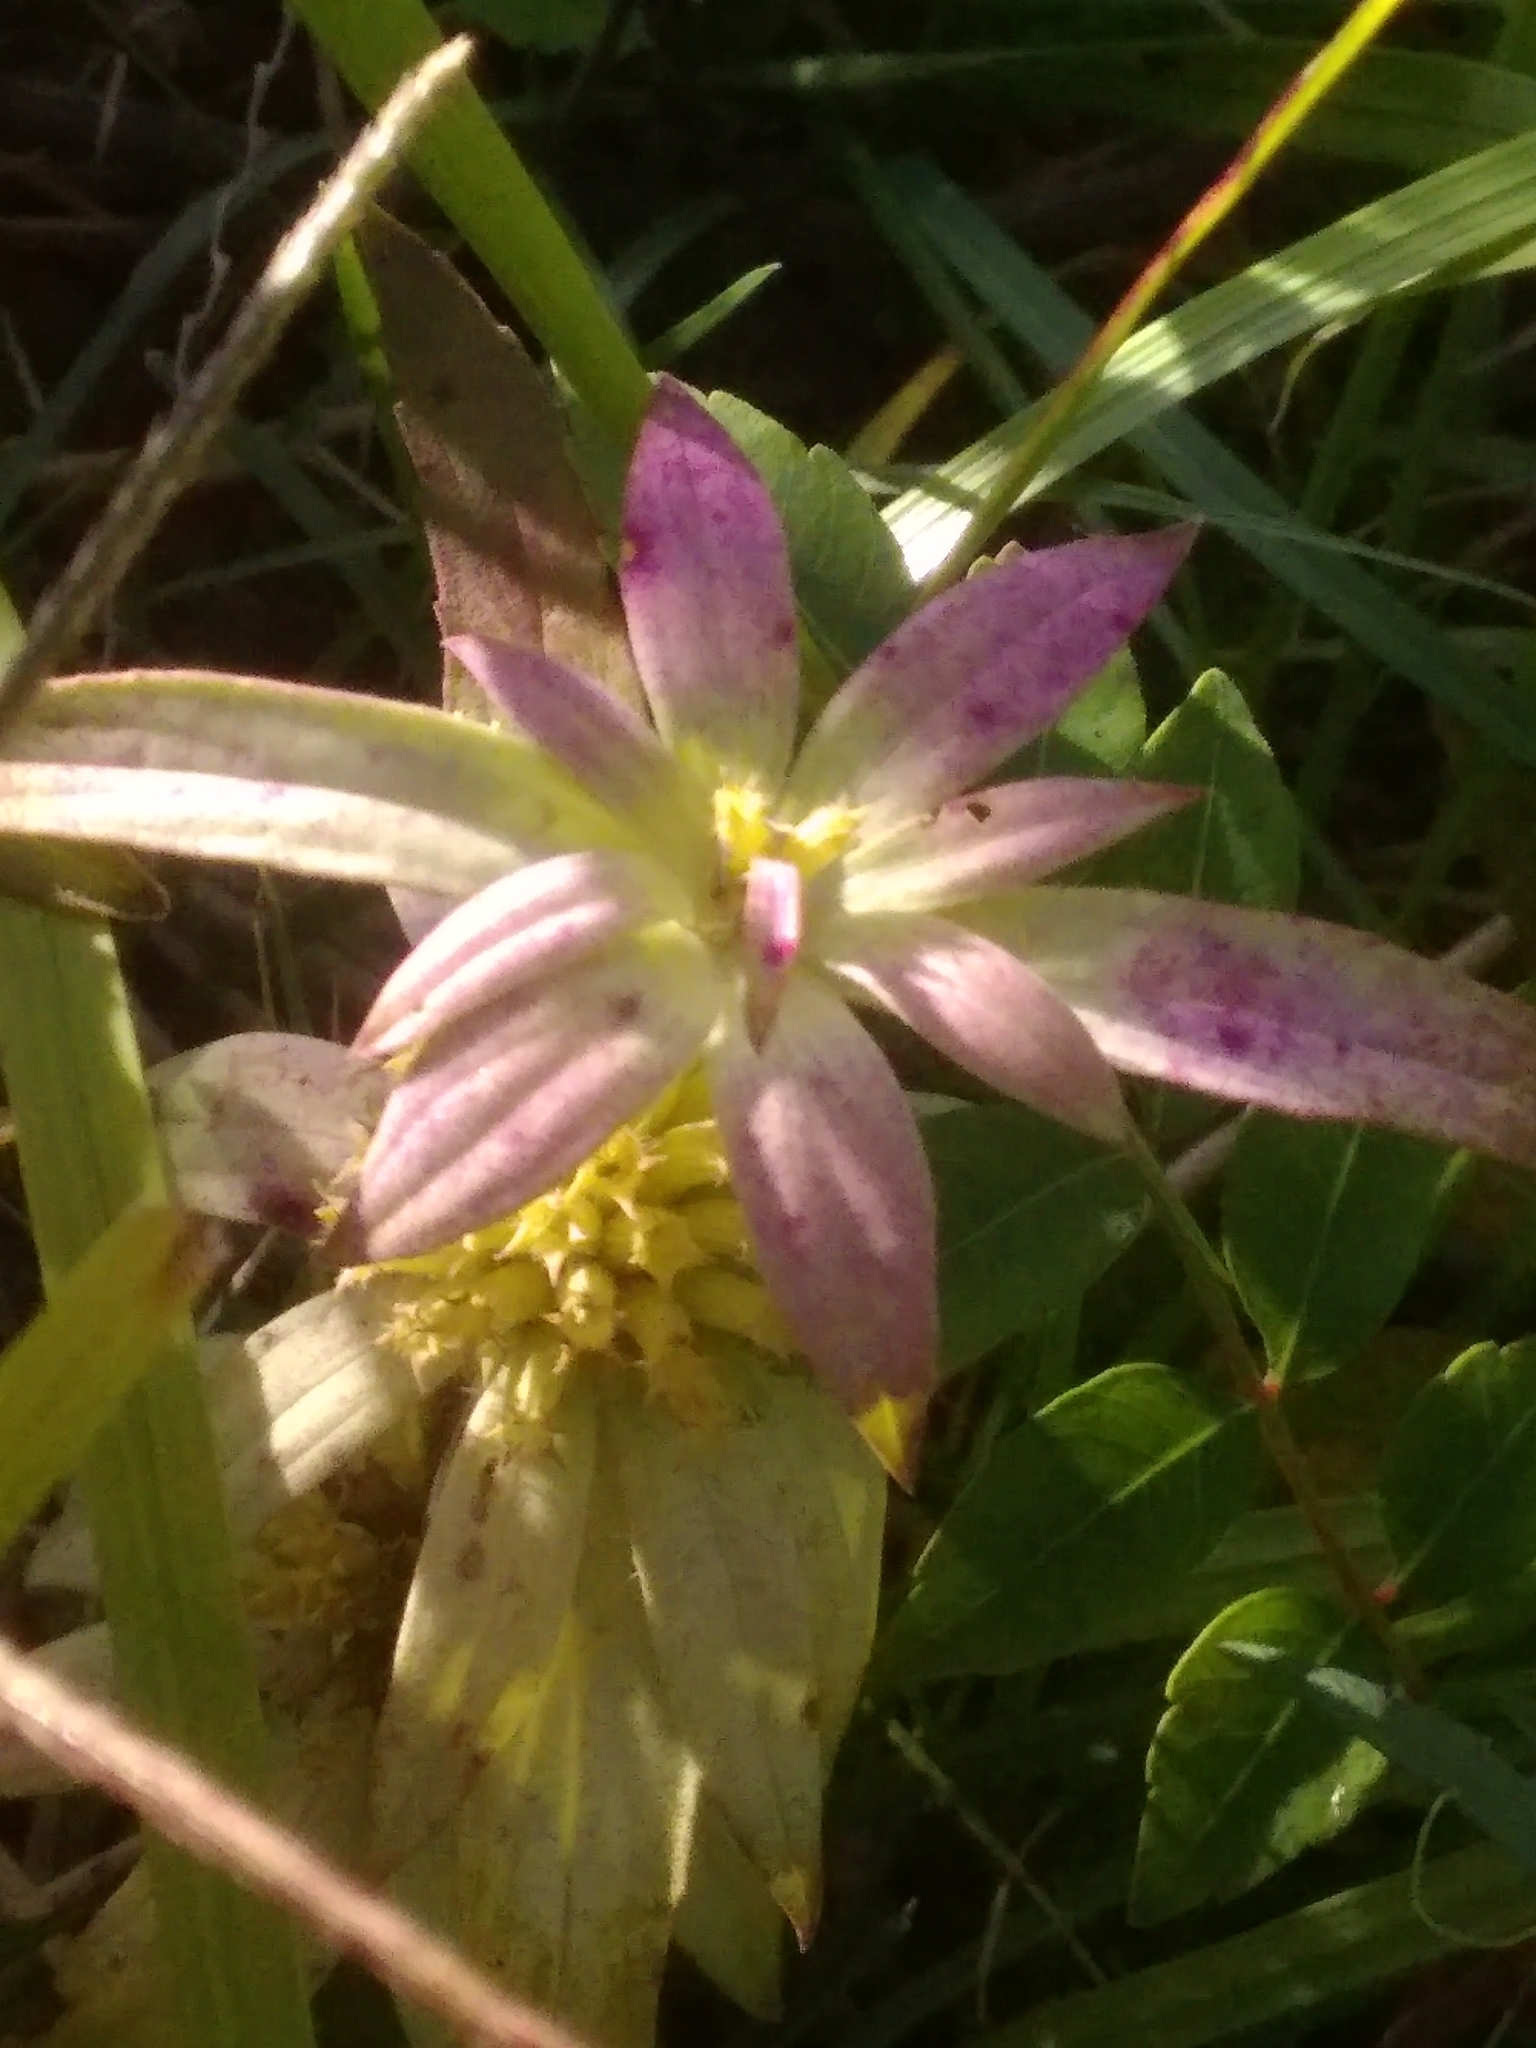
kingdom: Plantae
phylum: Tracheophyta
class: Magnoliopsida
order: Lamiales
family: Lamiaceae
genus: Monarda
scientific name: Monarda punctata
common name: Dotted monarda
